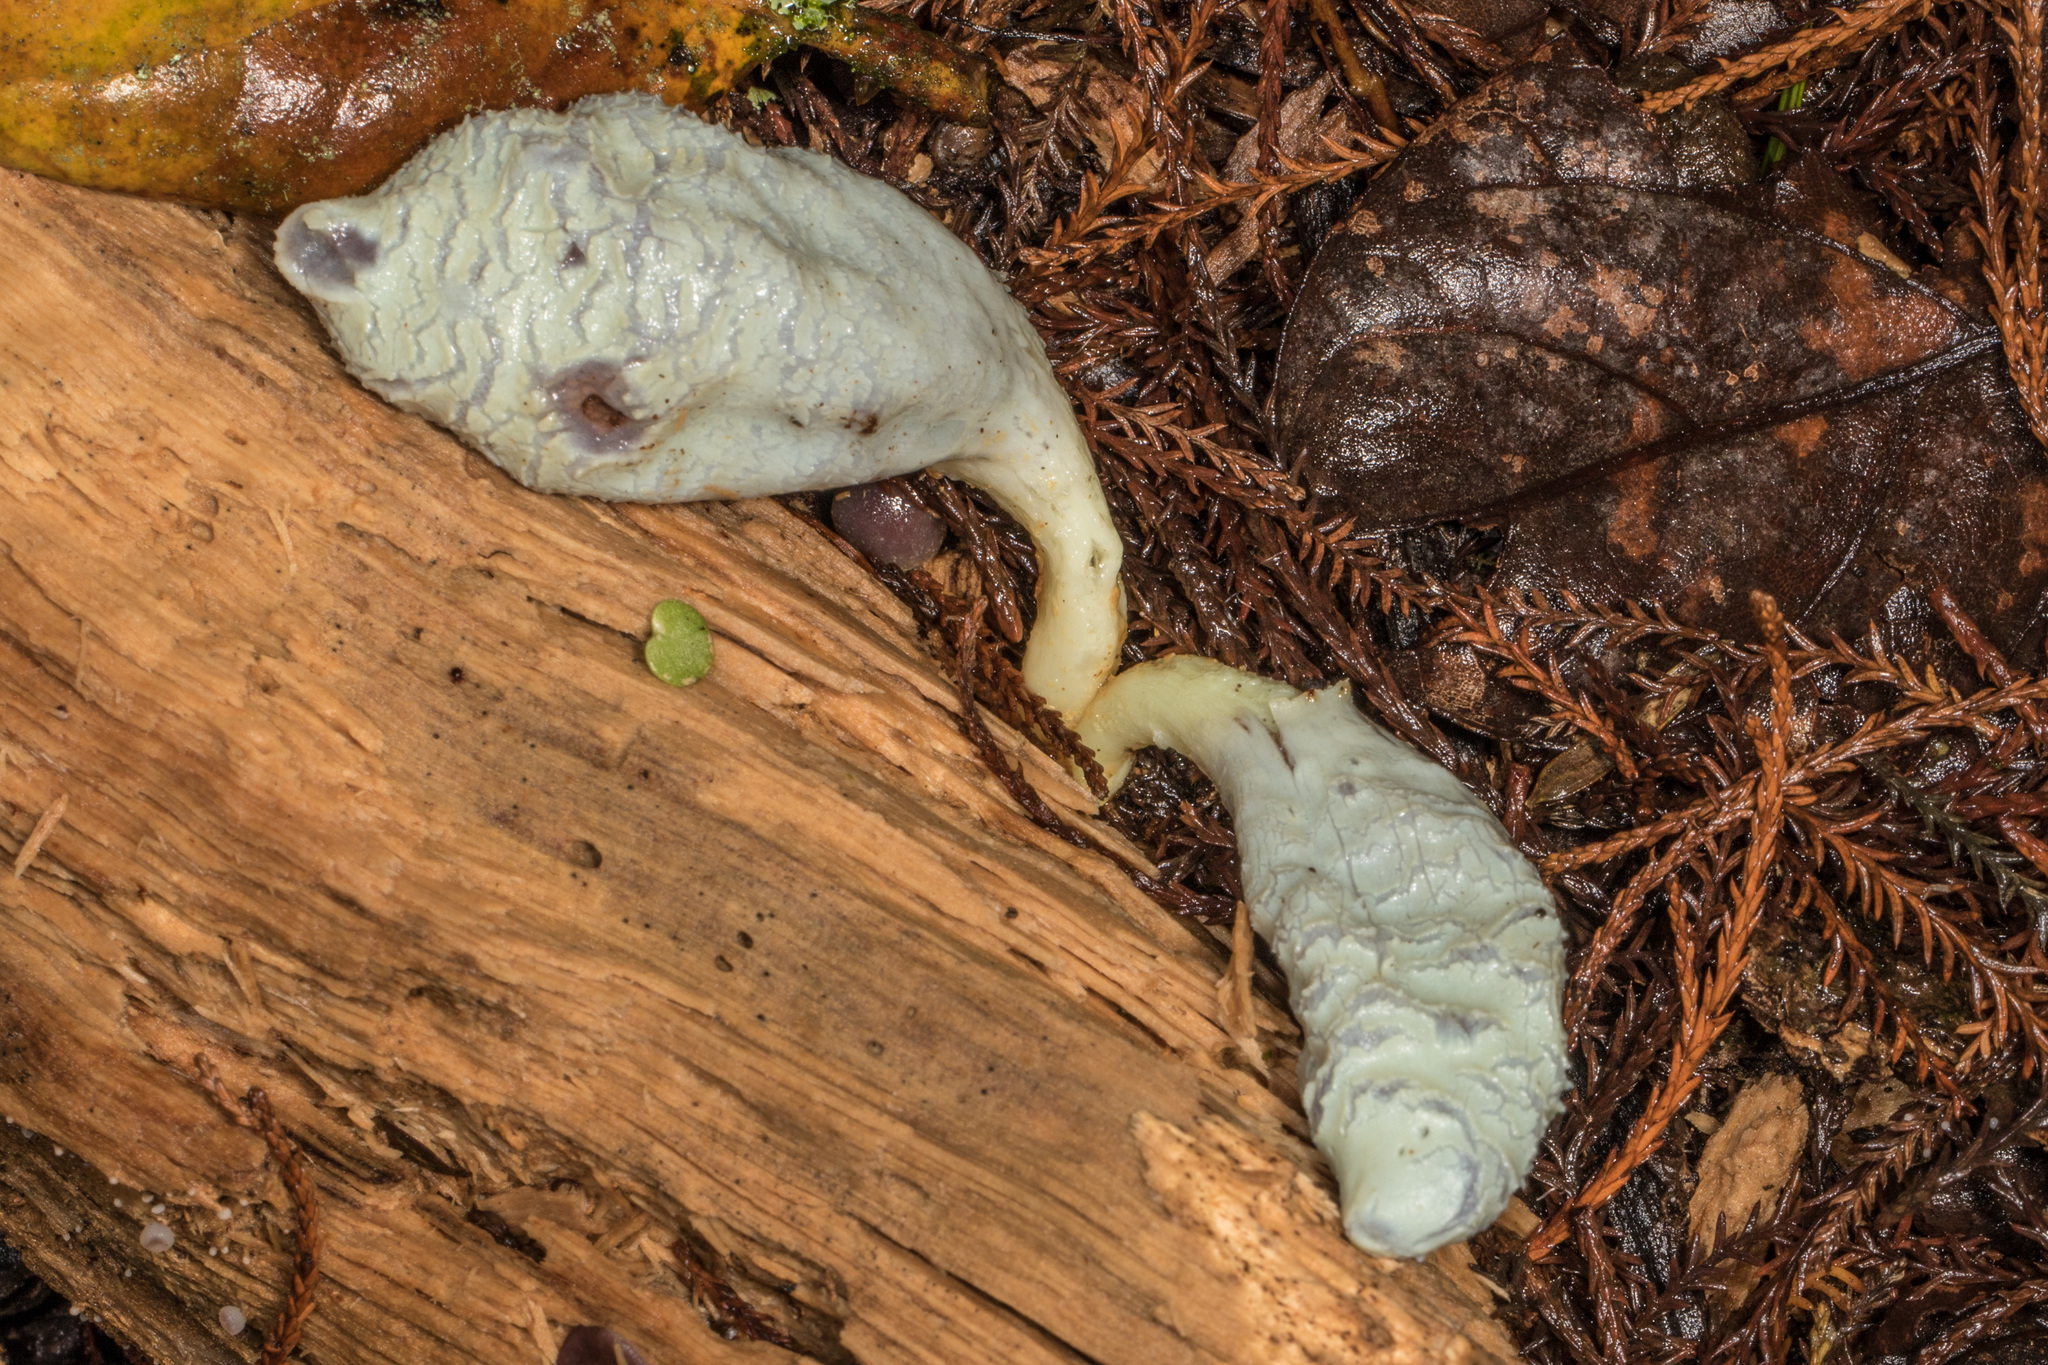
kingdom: Fungi
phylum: Basidiomycota
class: Agaricomycetes
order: Agaricales
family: Agaricaceae
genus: Clavogaster
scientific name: Clavogaster virescens
